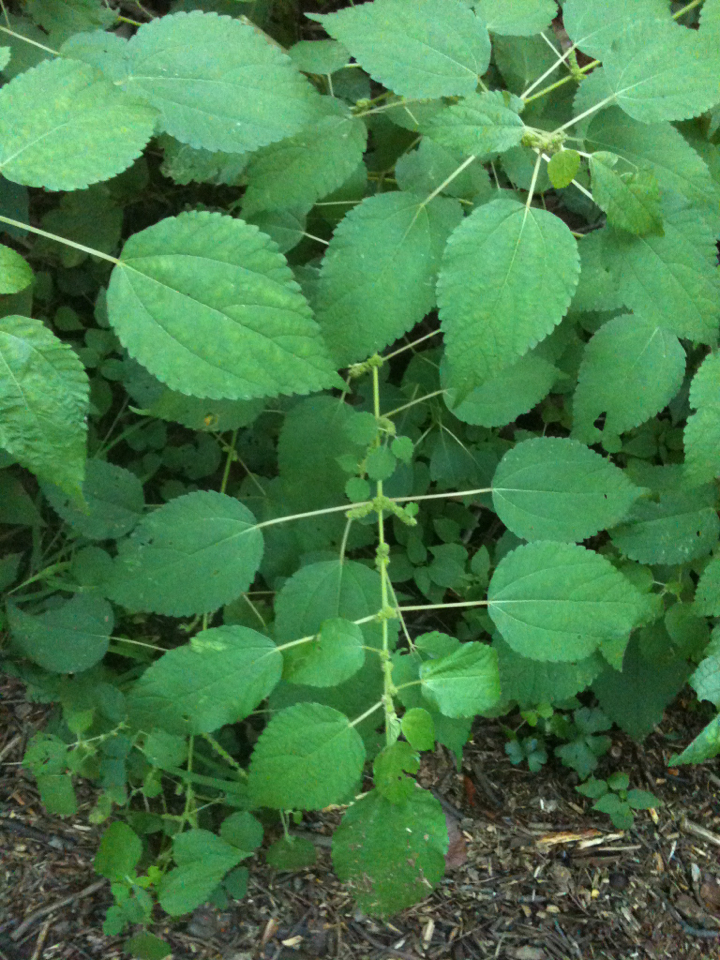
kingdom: Plantae
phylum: Tracheophyta
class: Magnoliopsida
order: Rosales
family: Urticaceae
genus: Boehmeria
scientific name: Boehmeria cylindrica
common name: Bog-hemp
